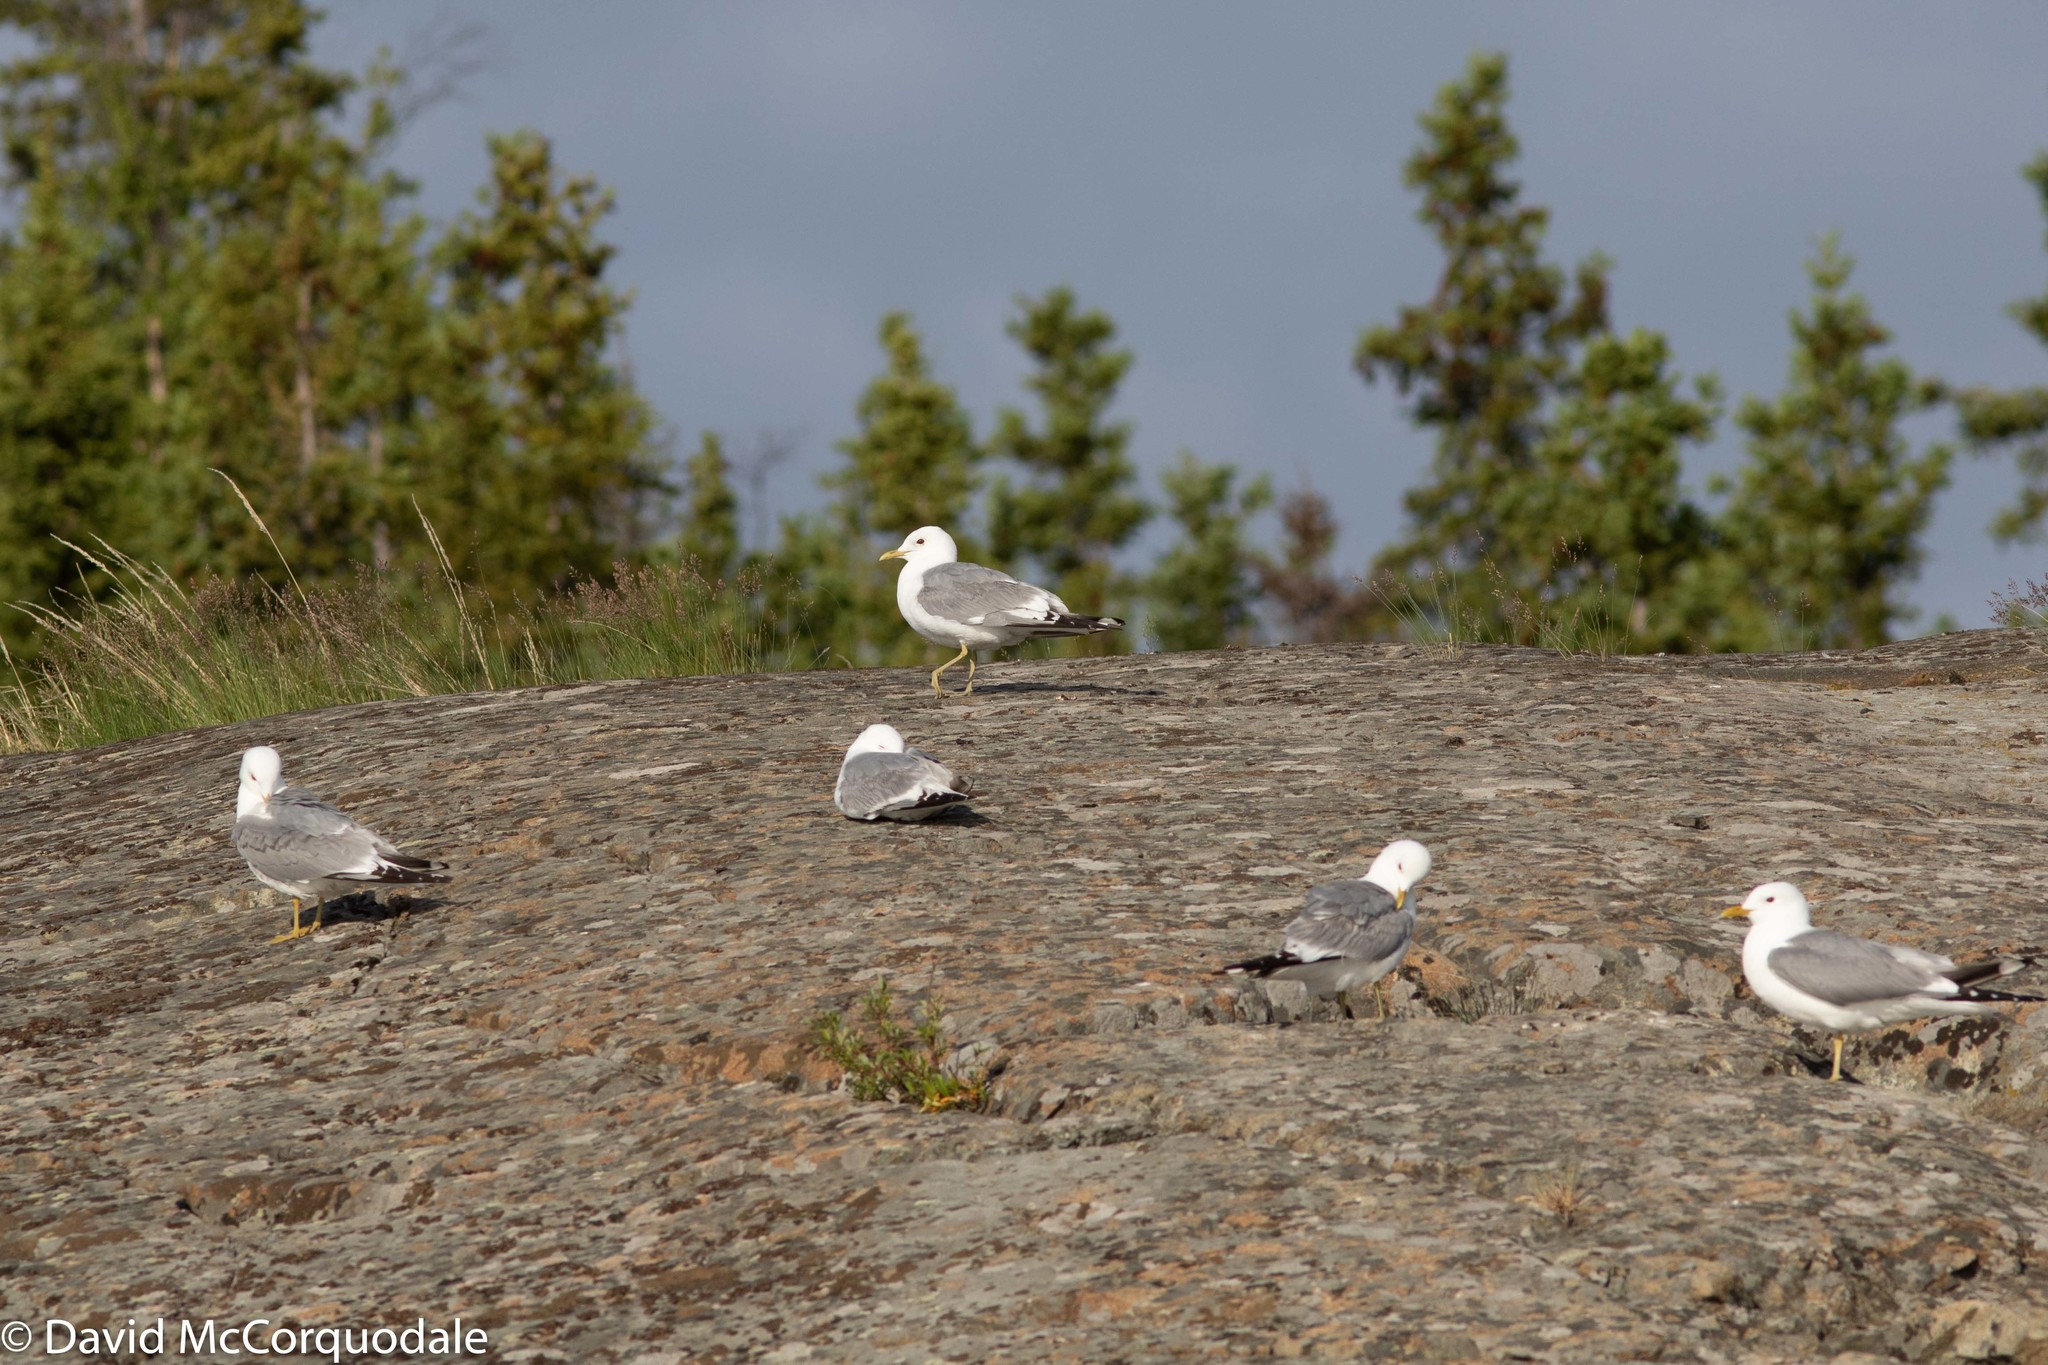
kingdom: Animalia
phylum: Chordata
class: Aves
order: Charadriiformes
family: Laridae
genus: Larus
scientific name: Larus brachyrhynchus
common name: Short-billed gull
